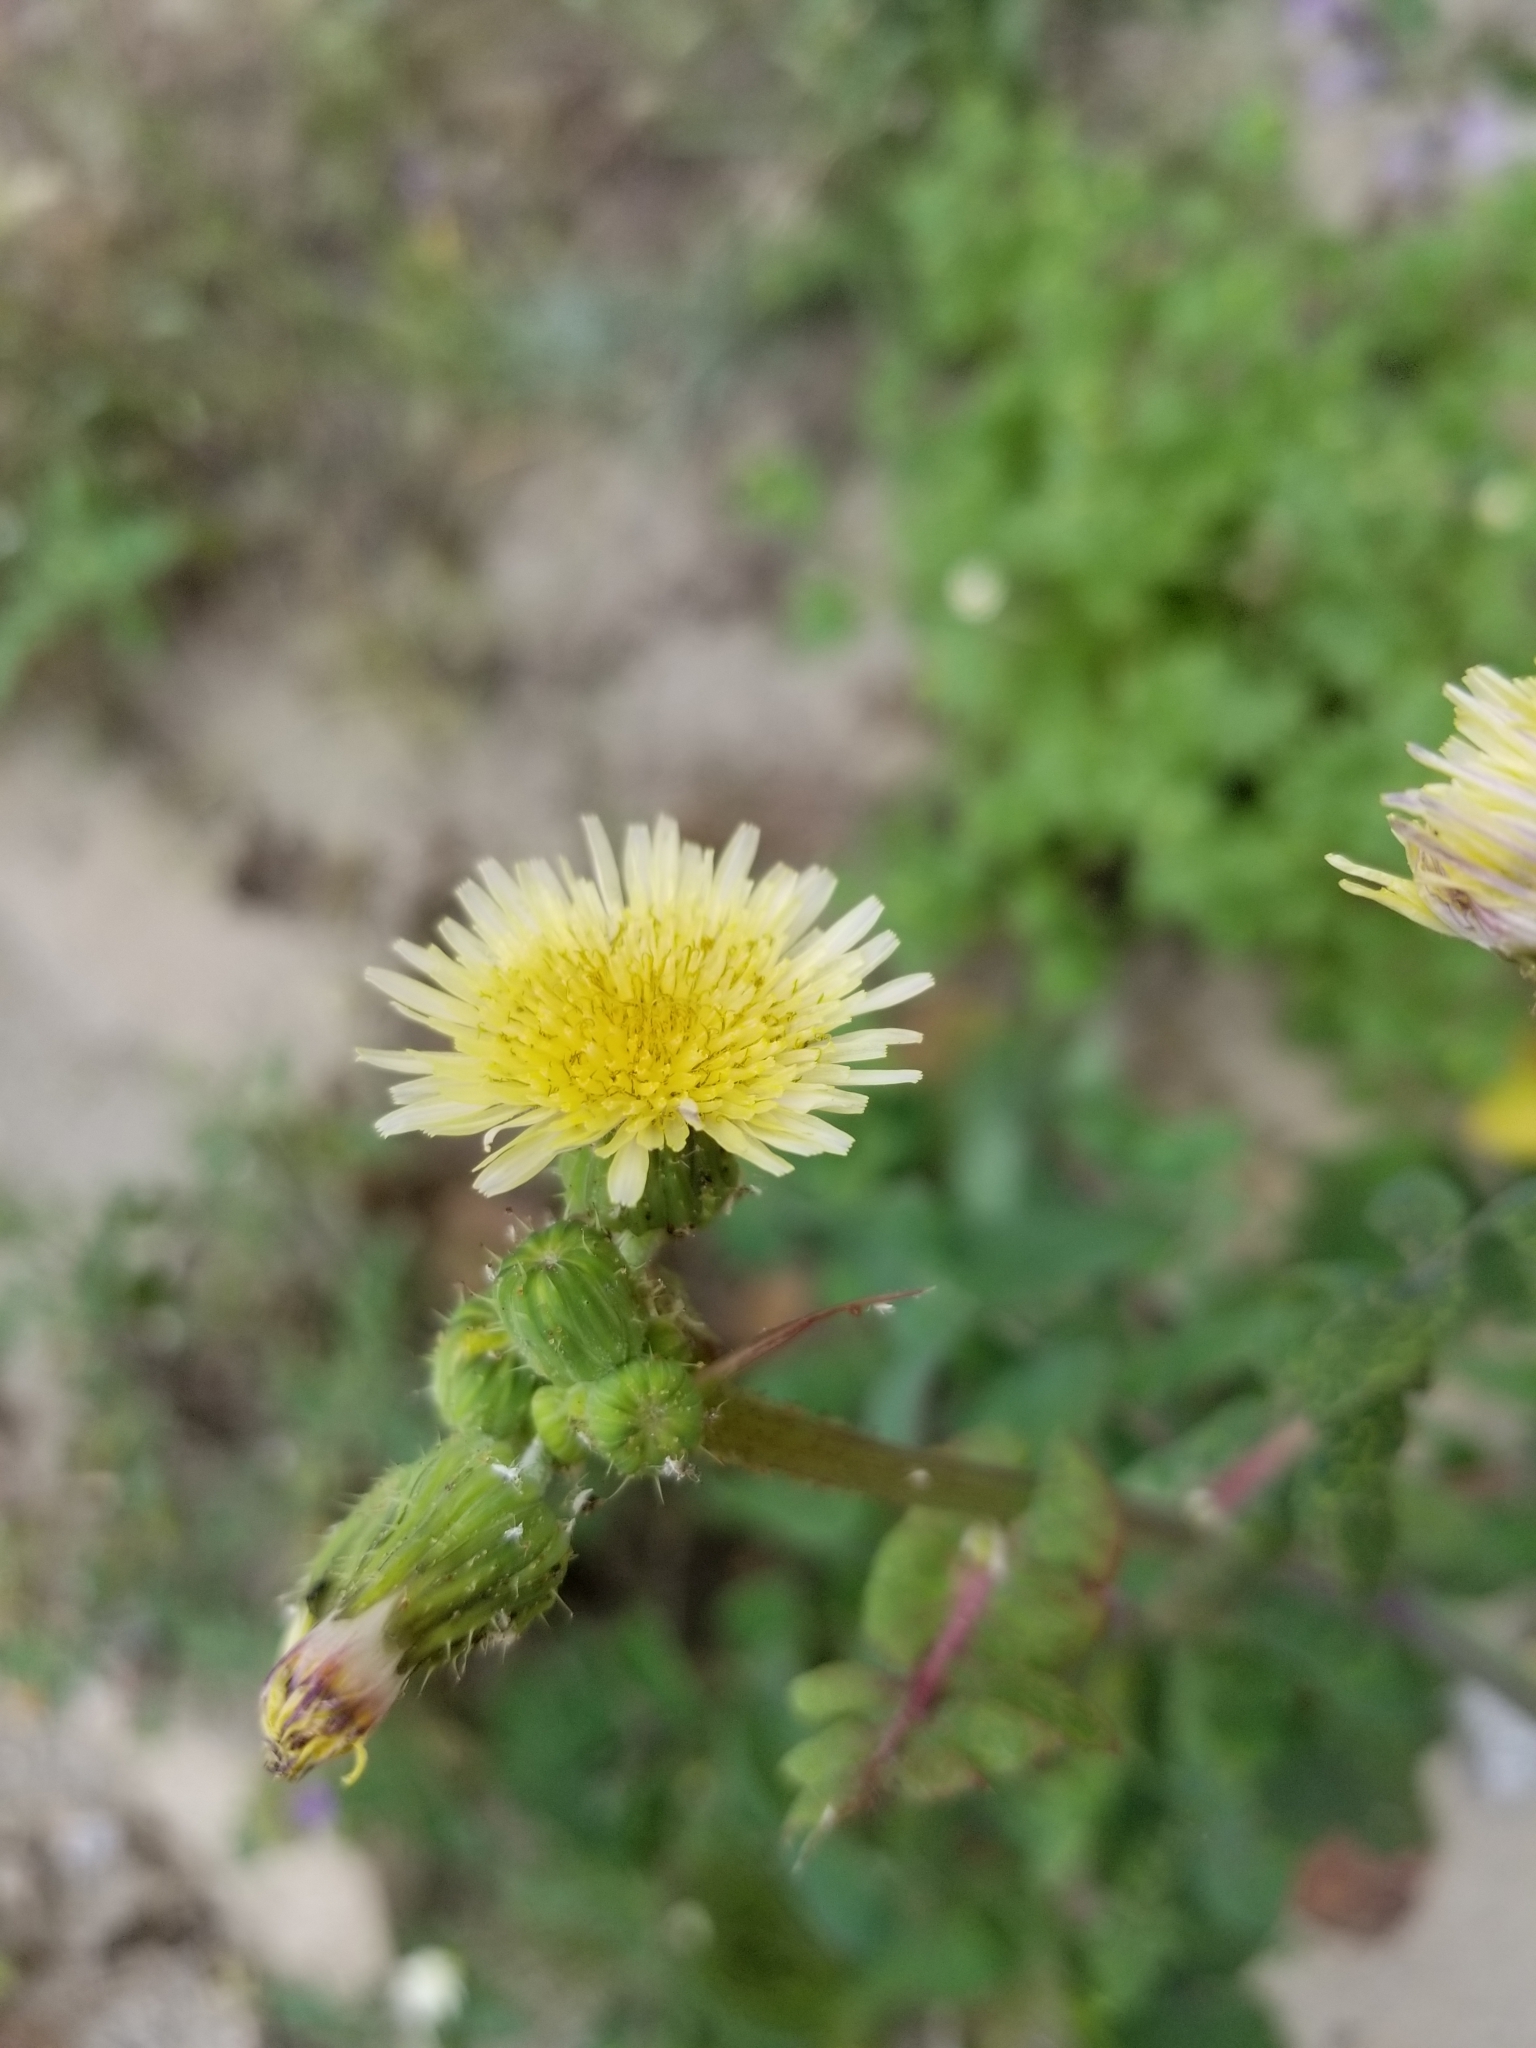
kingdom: Plantae
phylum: Tracheophyta
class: Magnoliopsida
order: Asterales
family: Asteraceae
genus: Sonchus
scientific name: Sonchus oleraceus
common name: Common sowthistle
